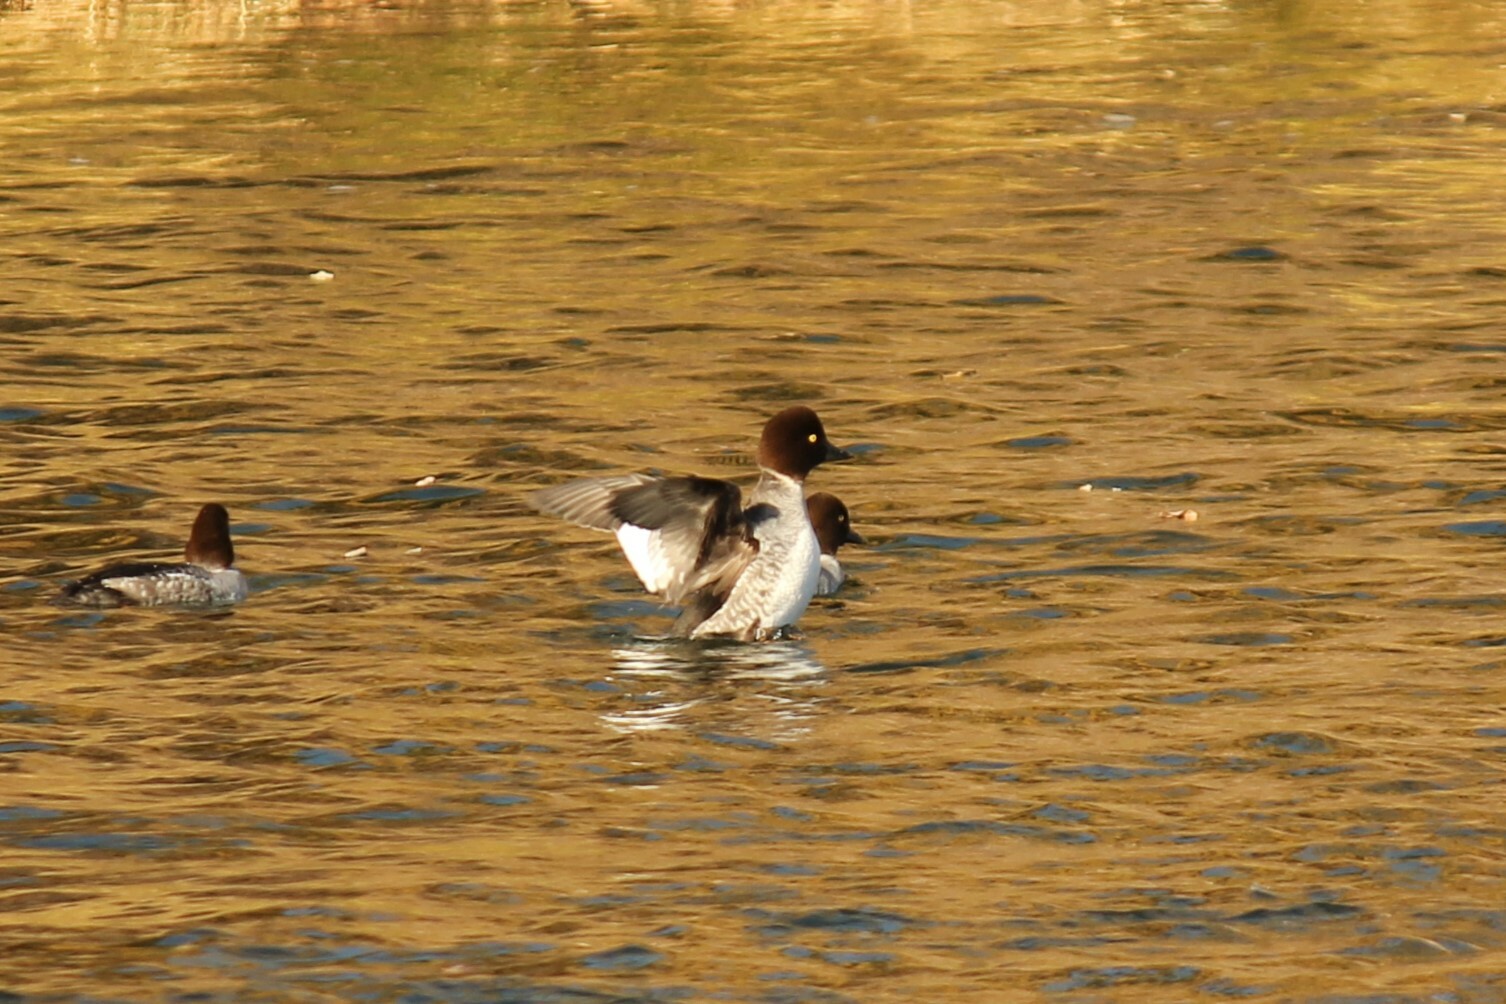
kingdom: Animalia
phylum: Chordata
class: Aves
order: Anseriformes
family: Anatidae
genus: Bucephala
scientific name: Bucephala clangula
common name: Common goldeneye
